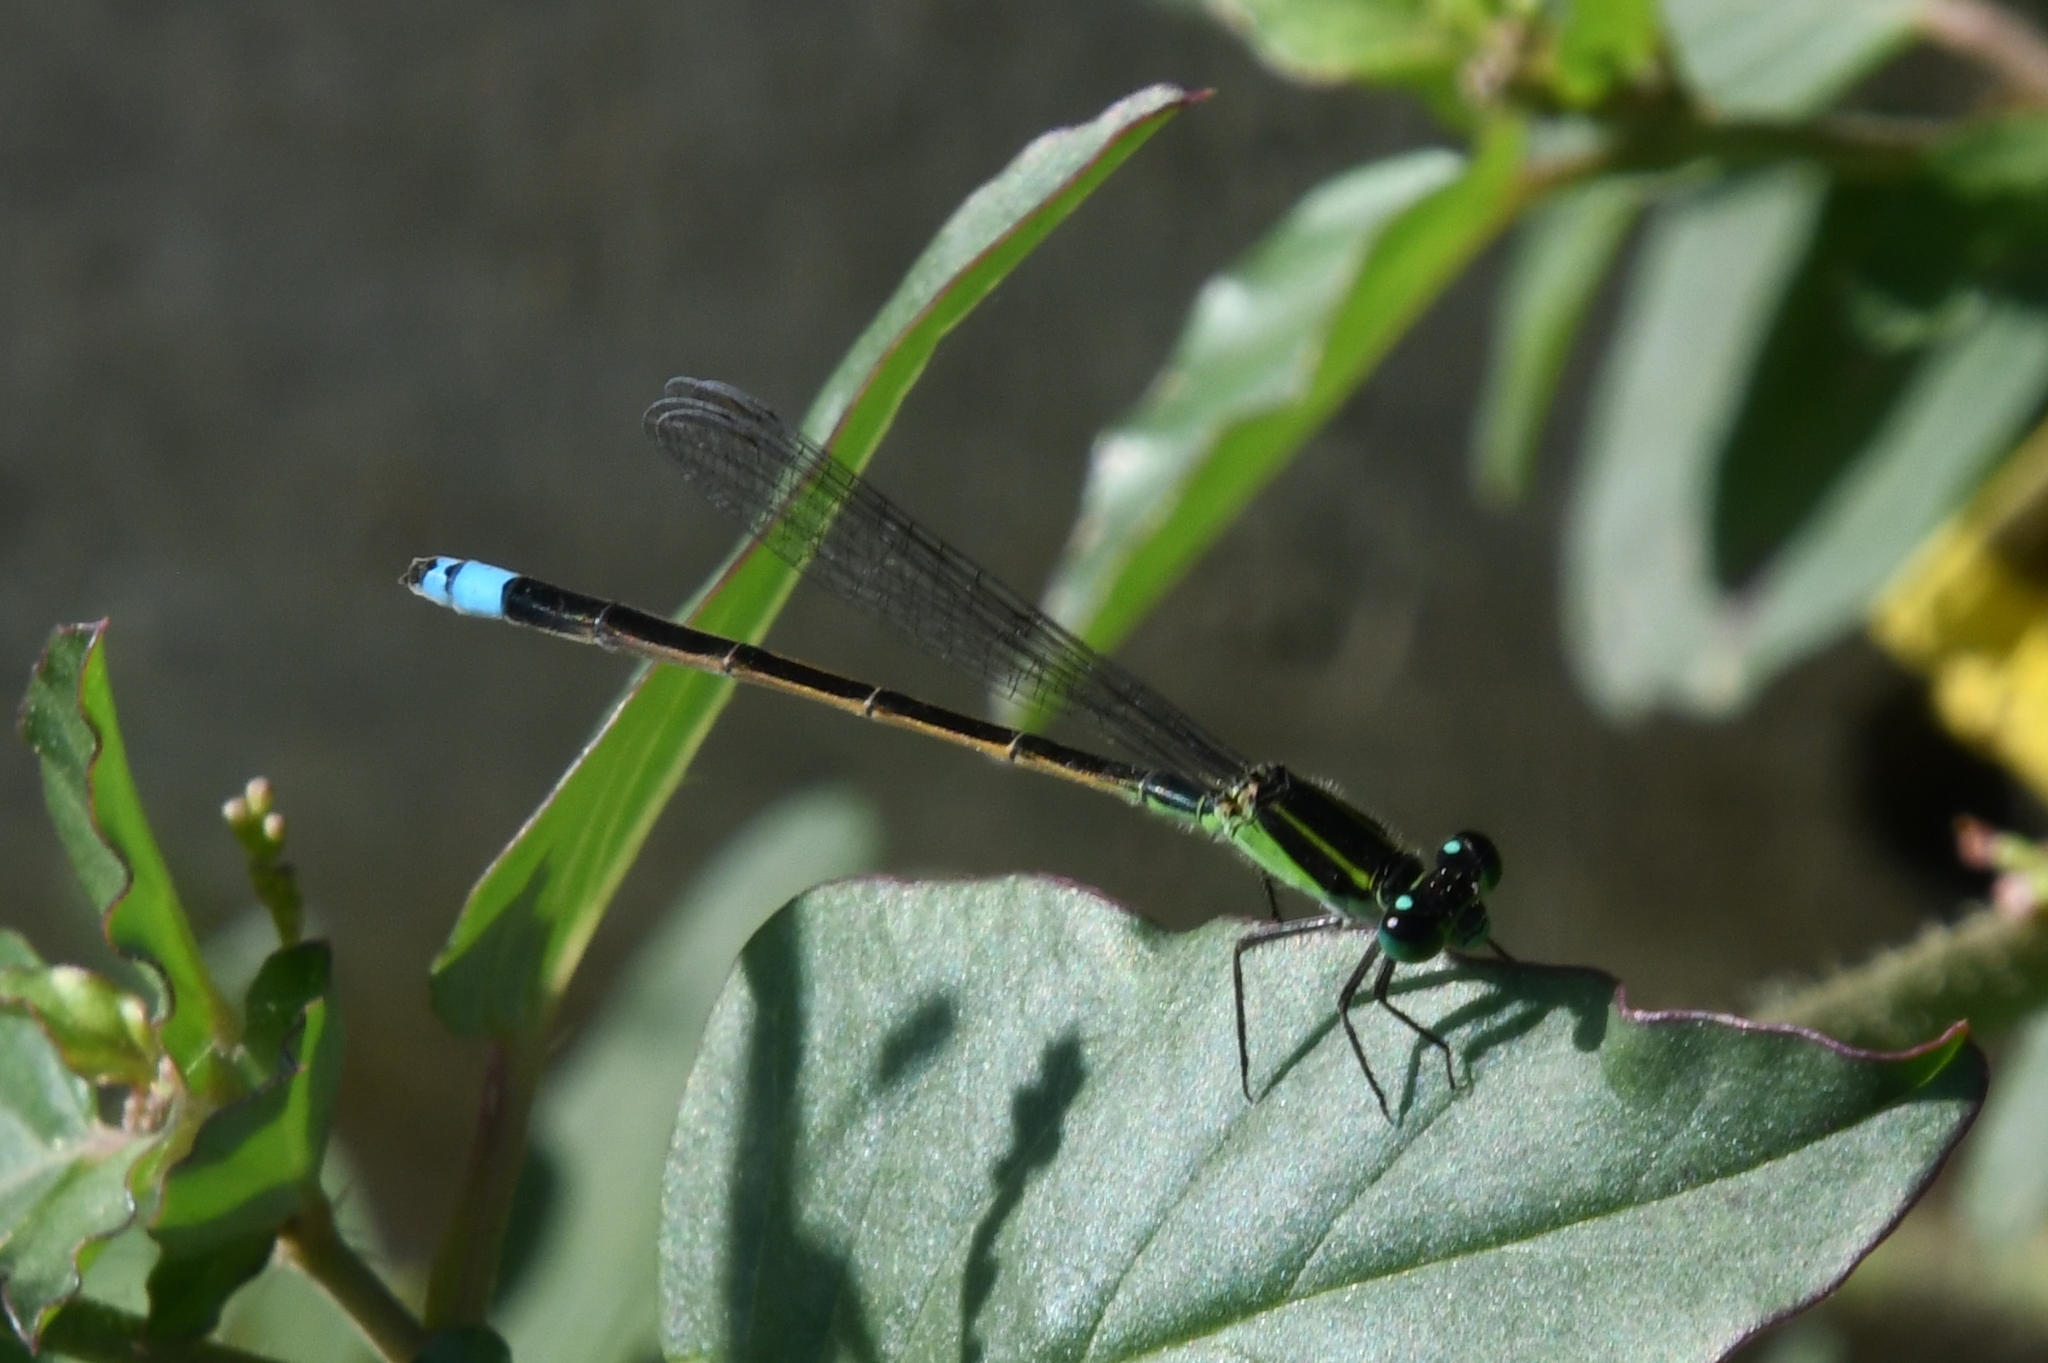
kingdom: Animalia
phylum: Arthropoda
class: Insecta
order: Odonata
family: Coenagrionidae
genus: Ischnura
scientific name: Ischnura ramburii
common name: Rambur's forktail
